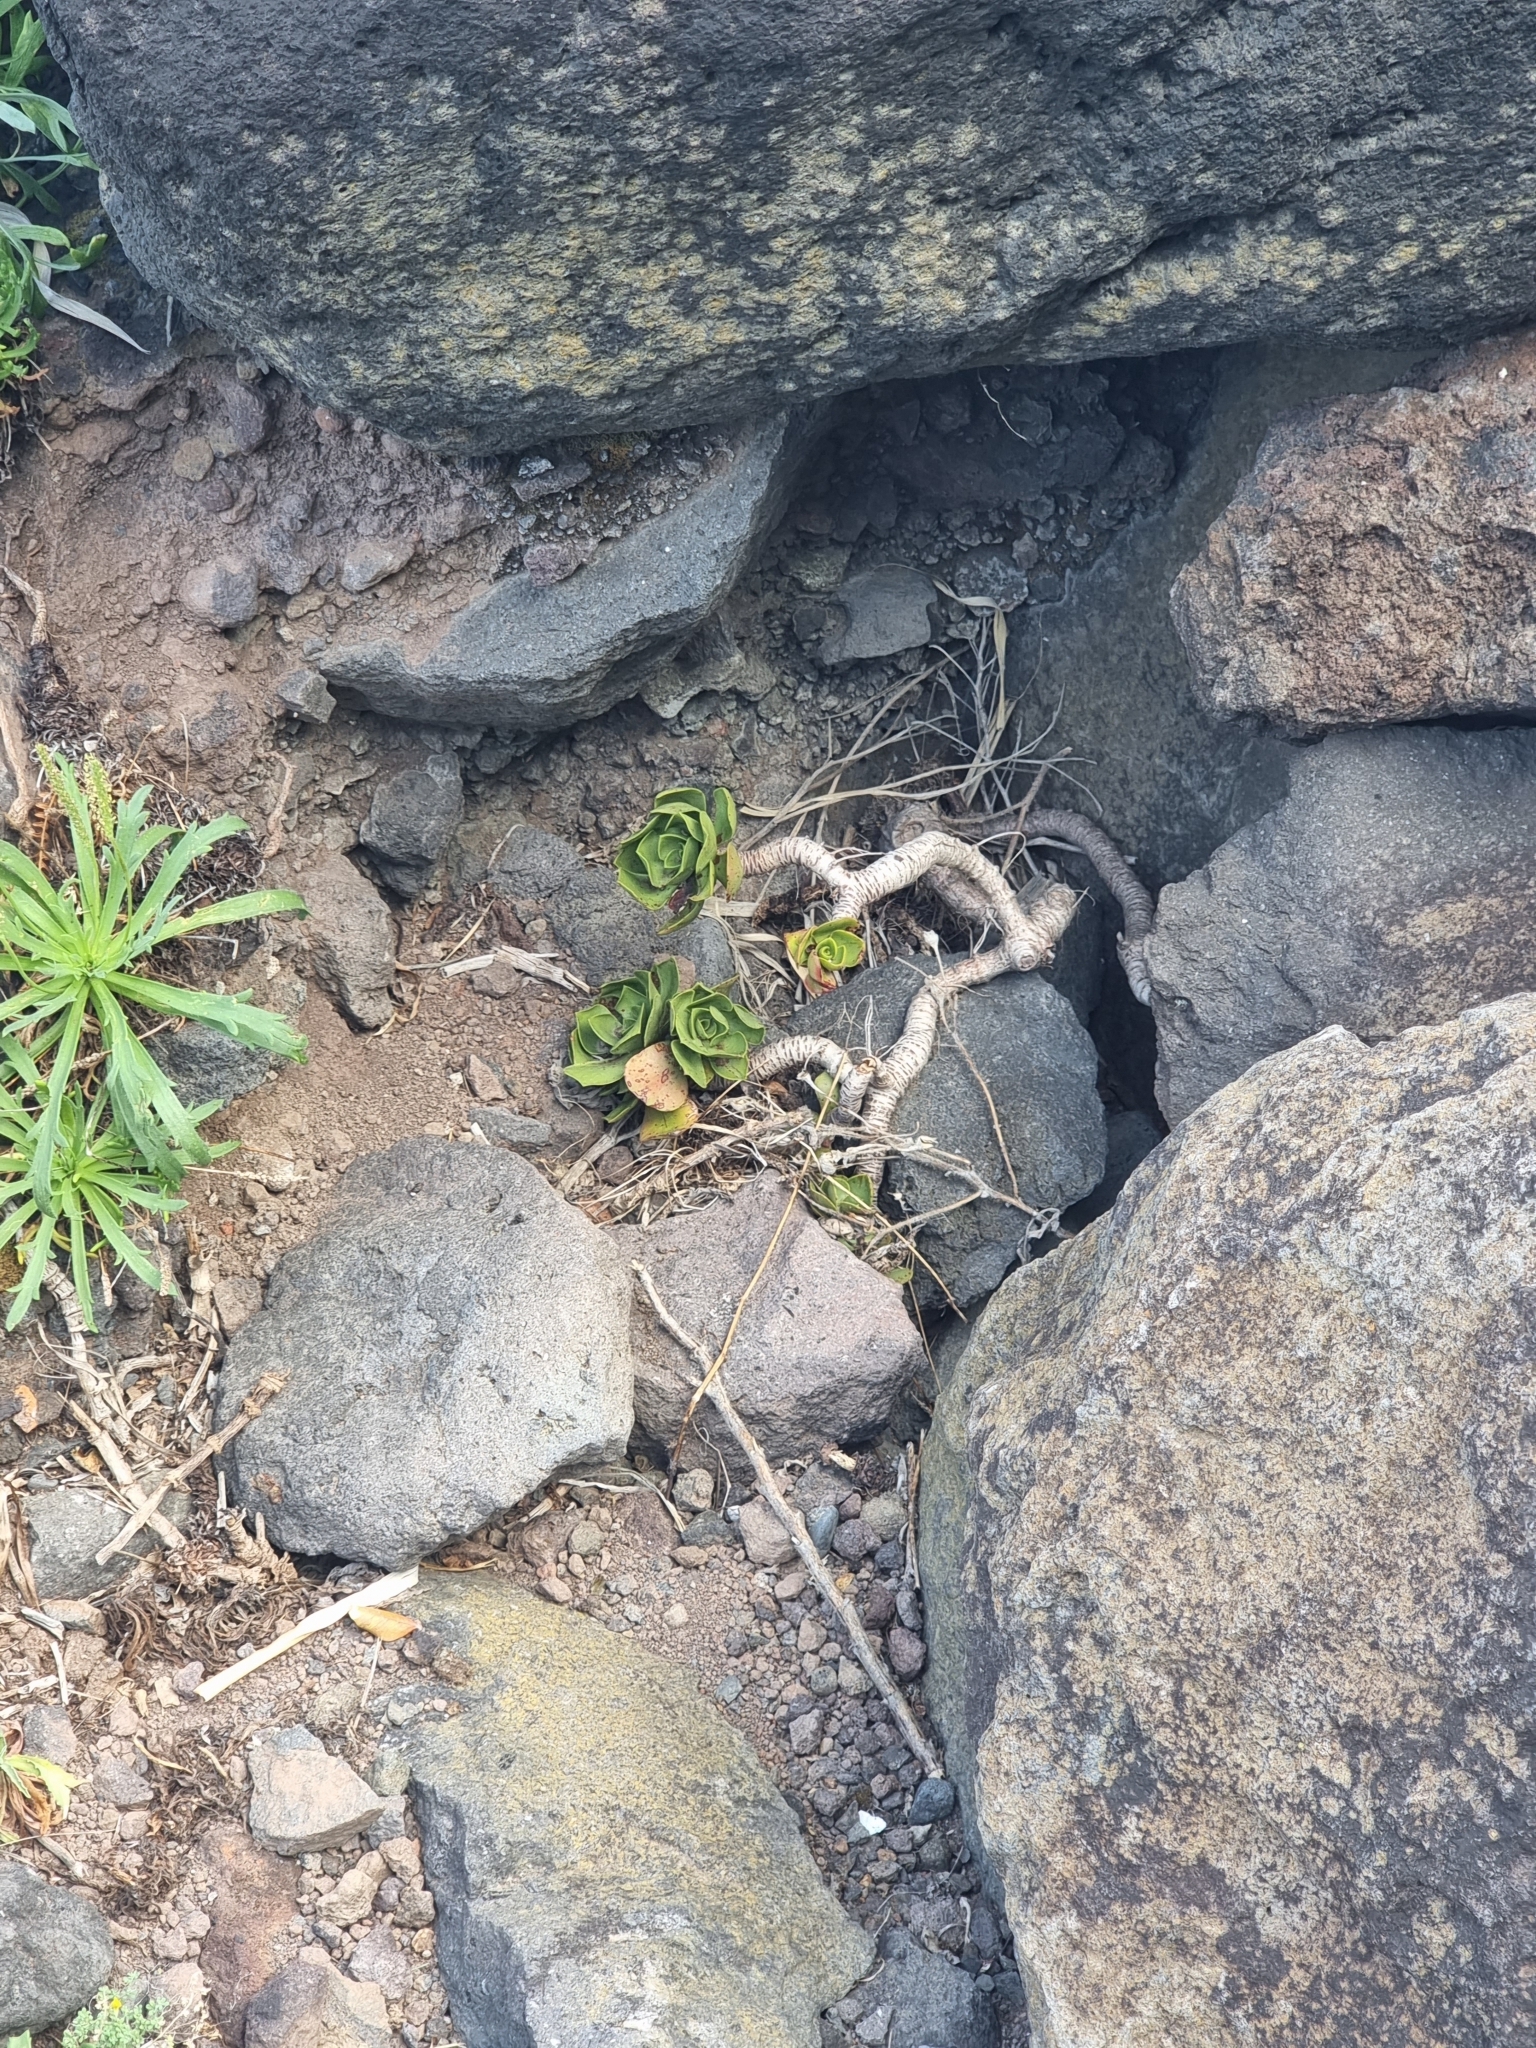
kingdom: Plantae
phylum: Tracheophyta
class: Magnoliopsida
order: Saxifragales
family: Crassulaceae
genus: Aeonium
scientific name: Aeonium glutinosum
